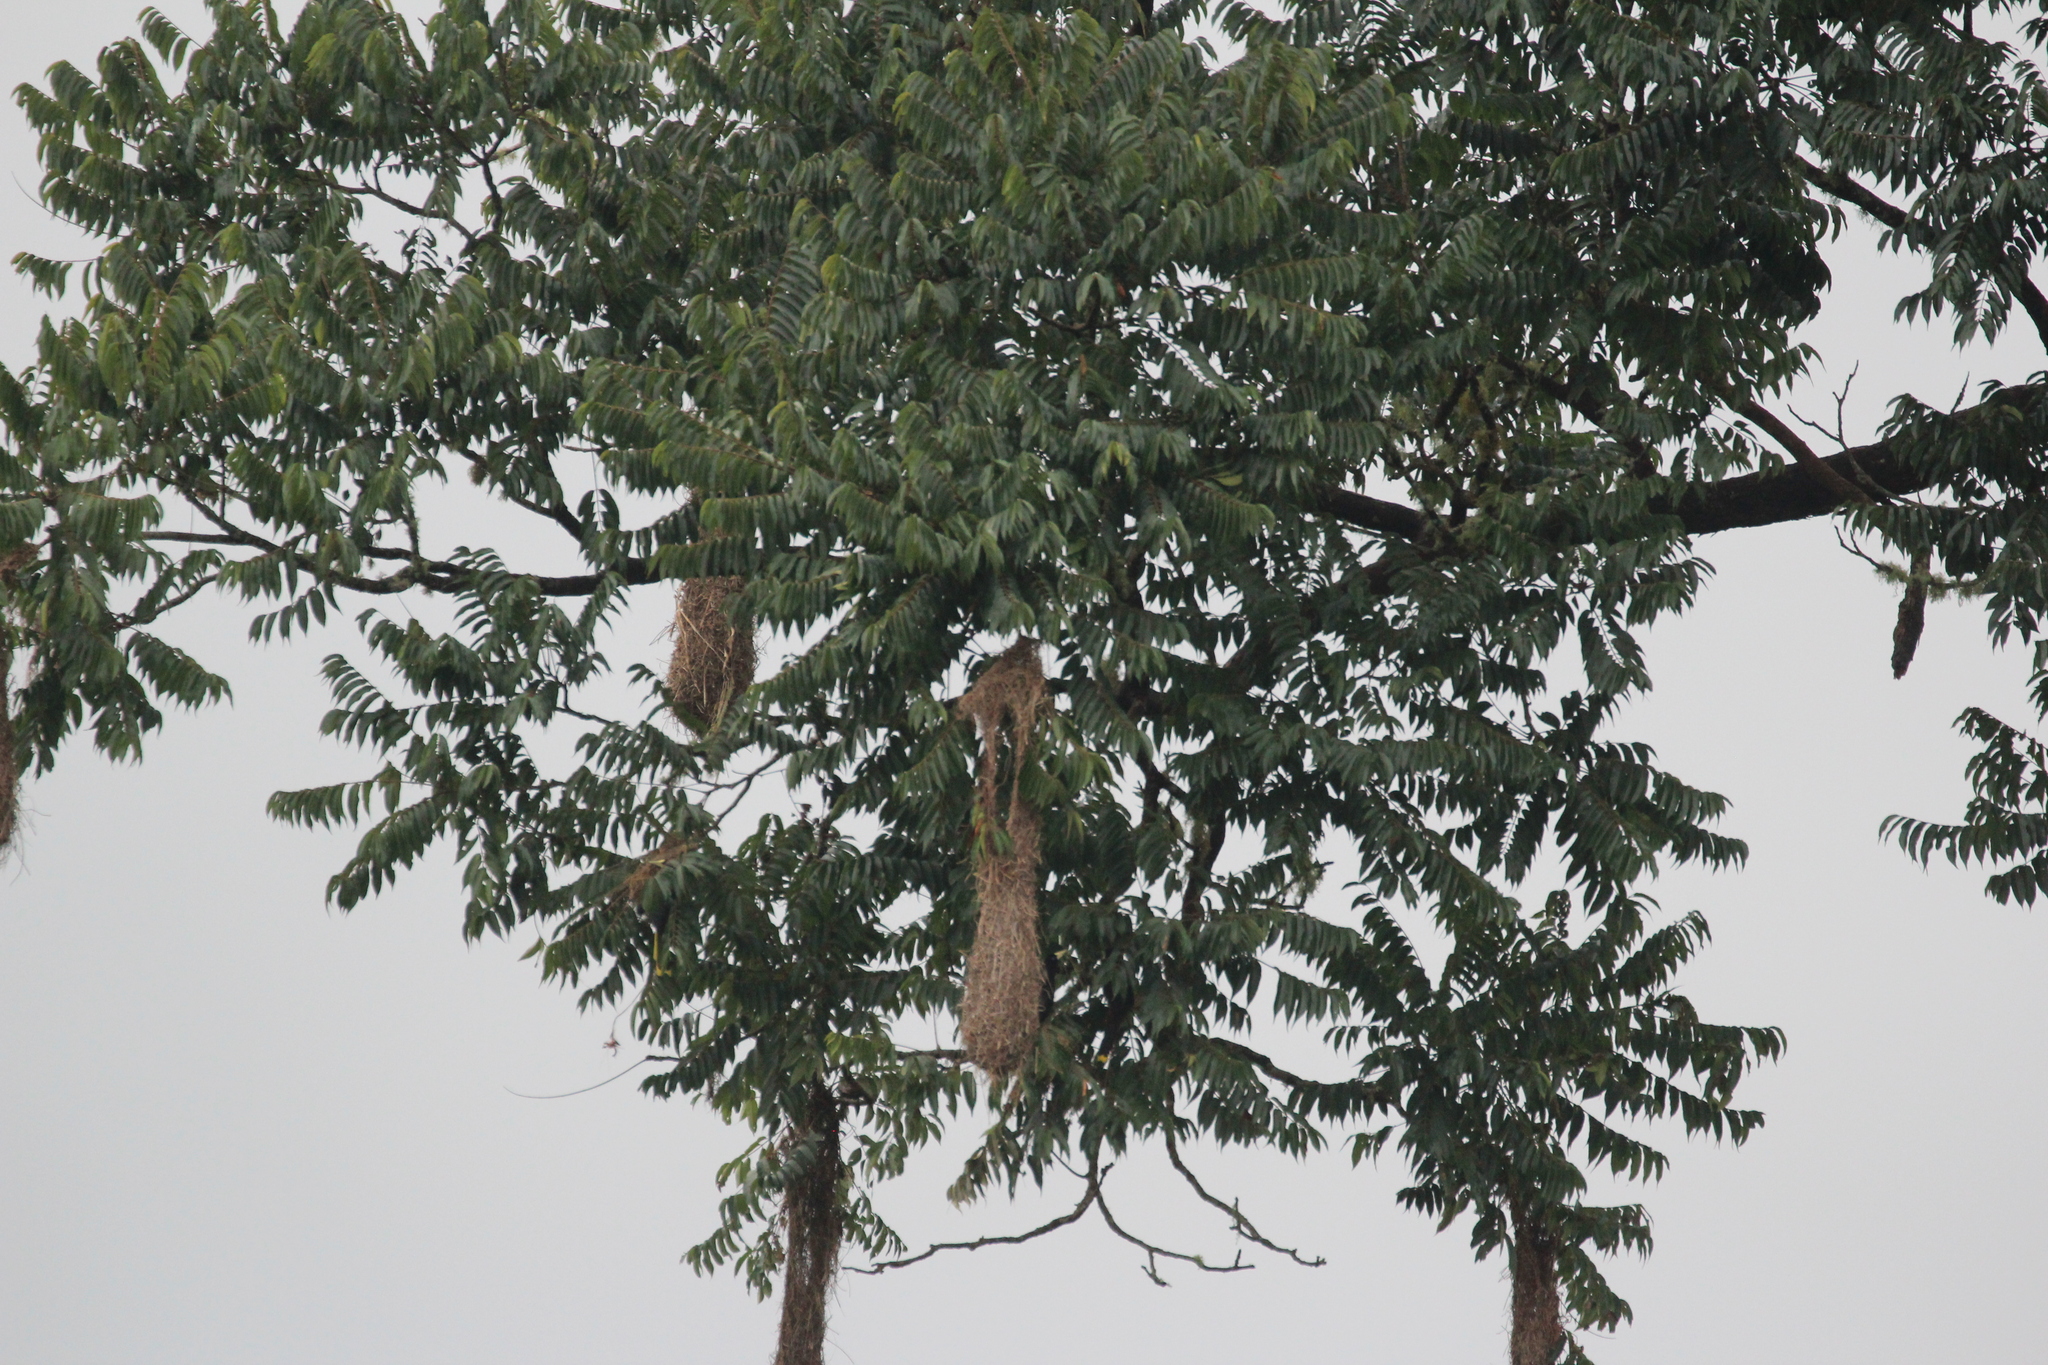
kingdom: Animalia
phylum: Chordata
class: Aves
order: Passeriformes
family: Icteridae
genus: Psarocolius
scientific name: Psarocolius decumanus
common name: Crested oropendola
